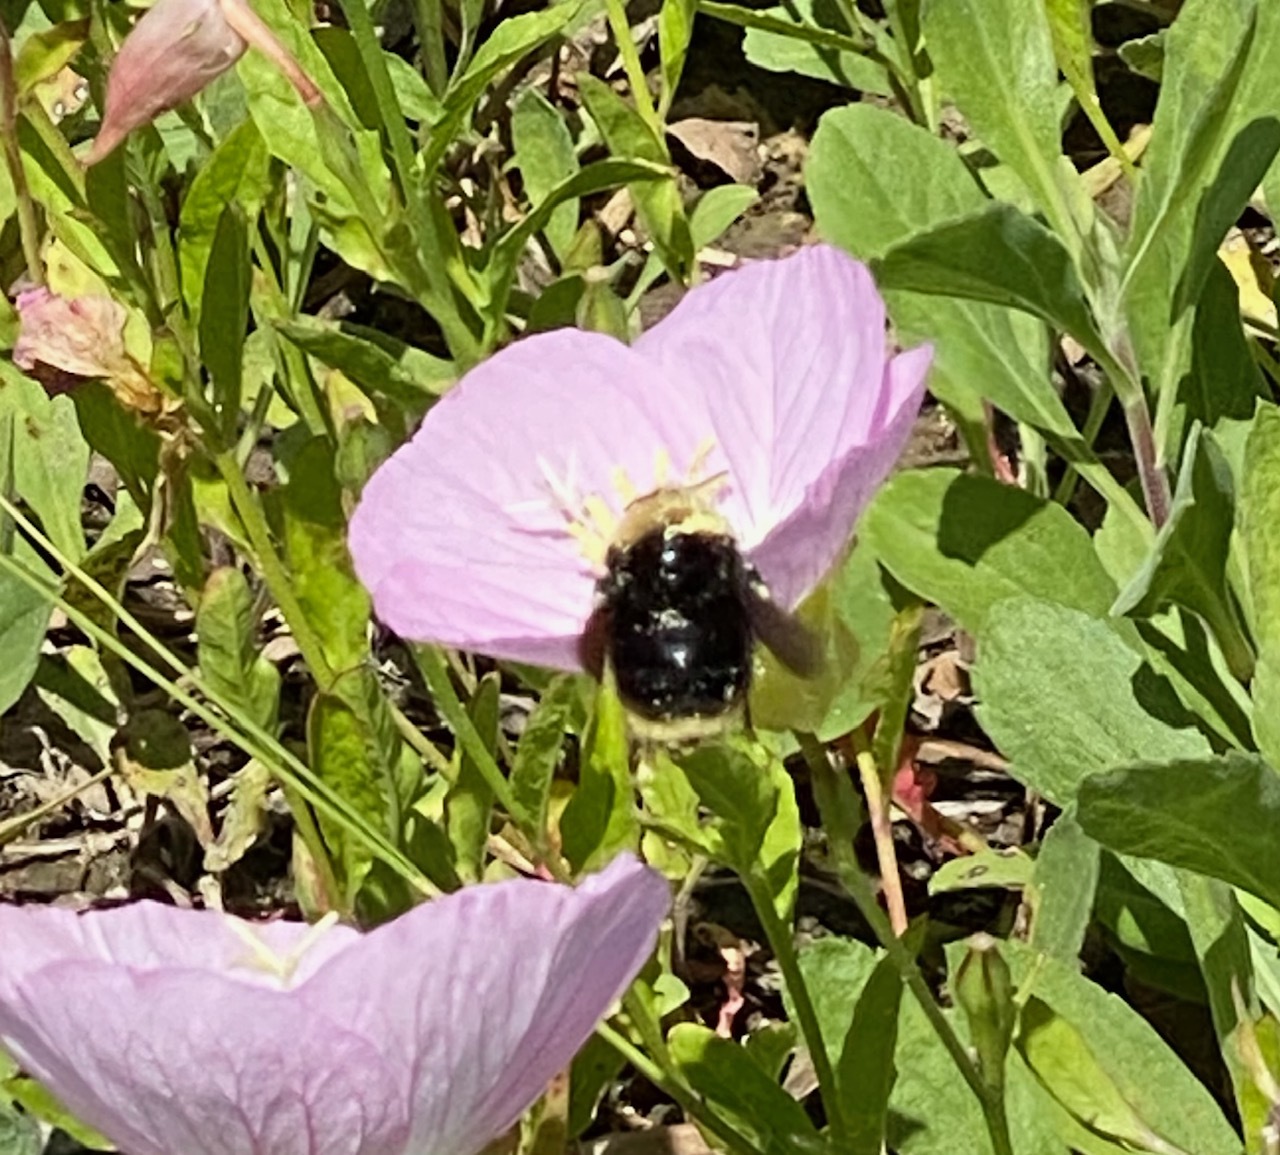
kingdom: Animalia
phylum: Arthropoda
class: Insecta
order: Hymenoptera
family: Apidae
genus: Bombus
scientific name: Bombus californicus
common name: California bumble bee
